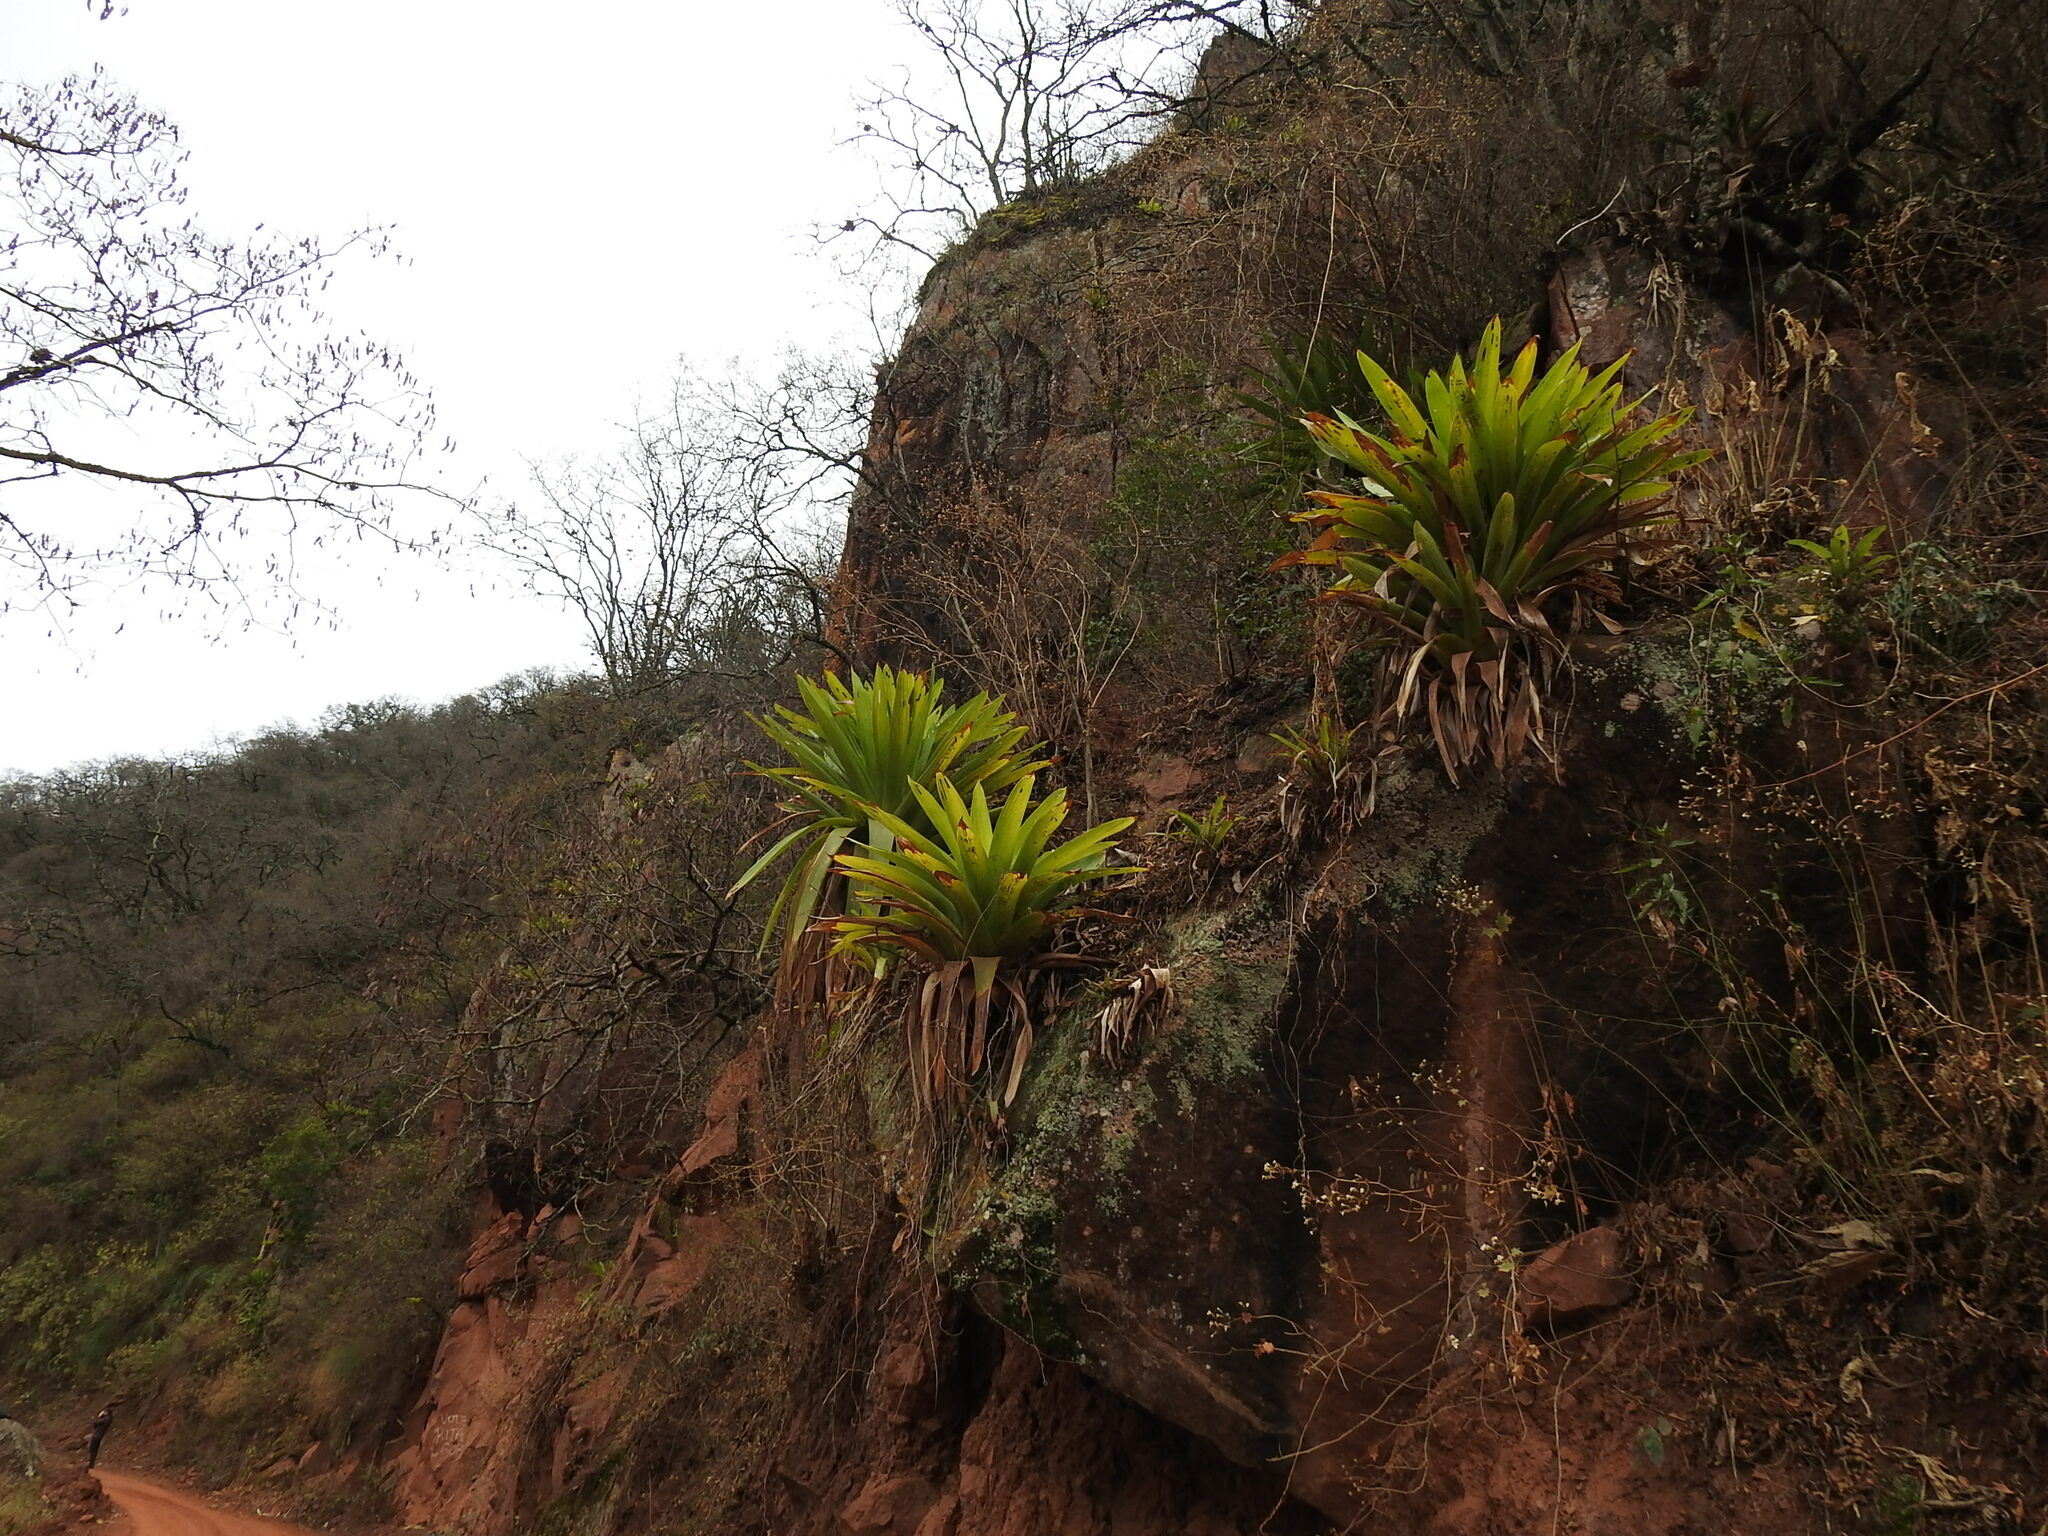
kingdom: Plantae
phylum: Tracheophyta
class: Liliopsida
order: Poales
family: Bromeliaceae
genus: Tillandsia
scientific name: Tillandsia australis
